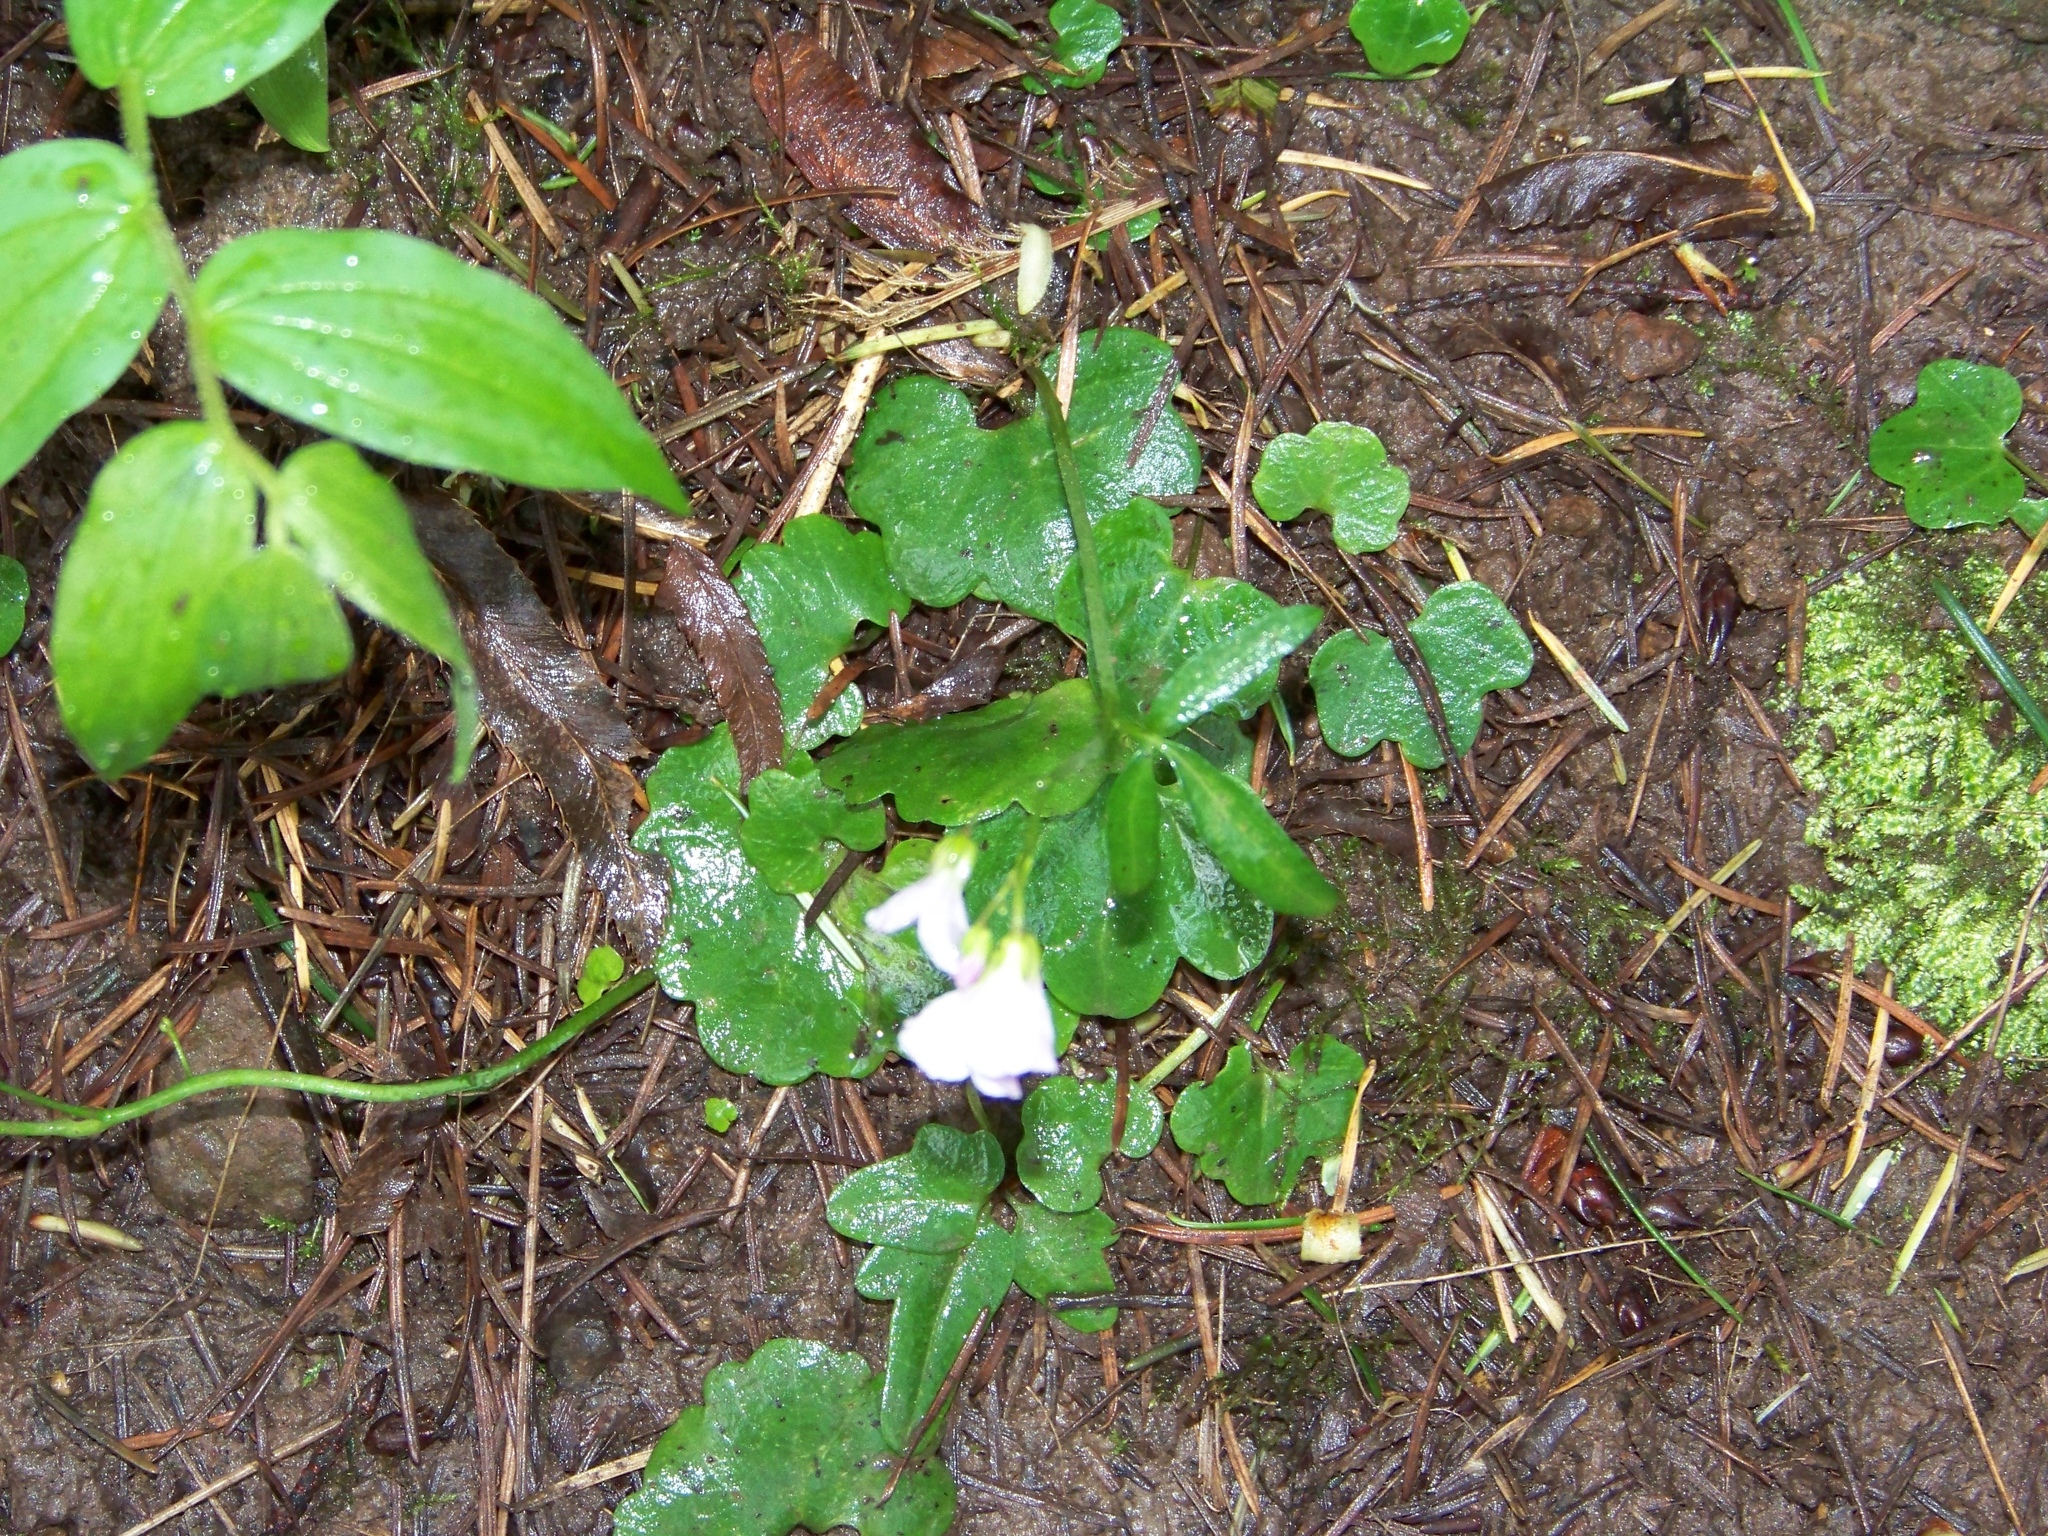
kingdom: Plantae
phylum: Tracheophyta
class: Magnoliopsida
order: Brassicales
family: Brassicaceae
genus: Cardamine
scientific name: Cardamine nuttallii
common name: Nuttall's toothwort
